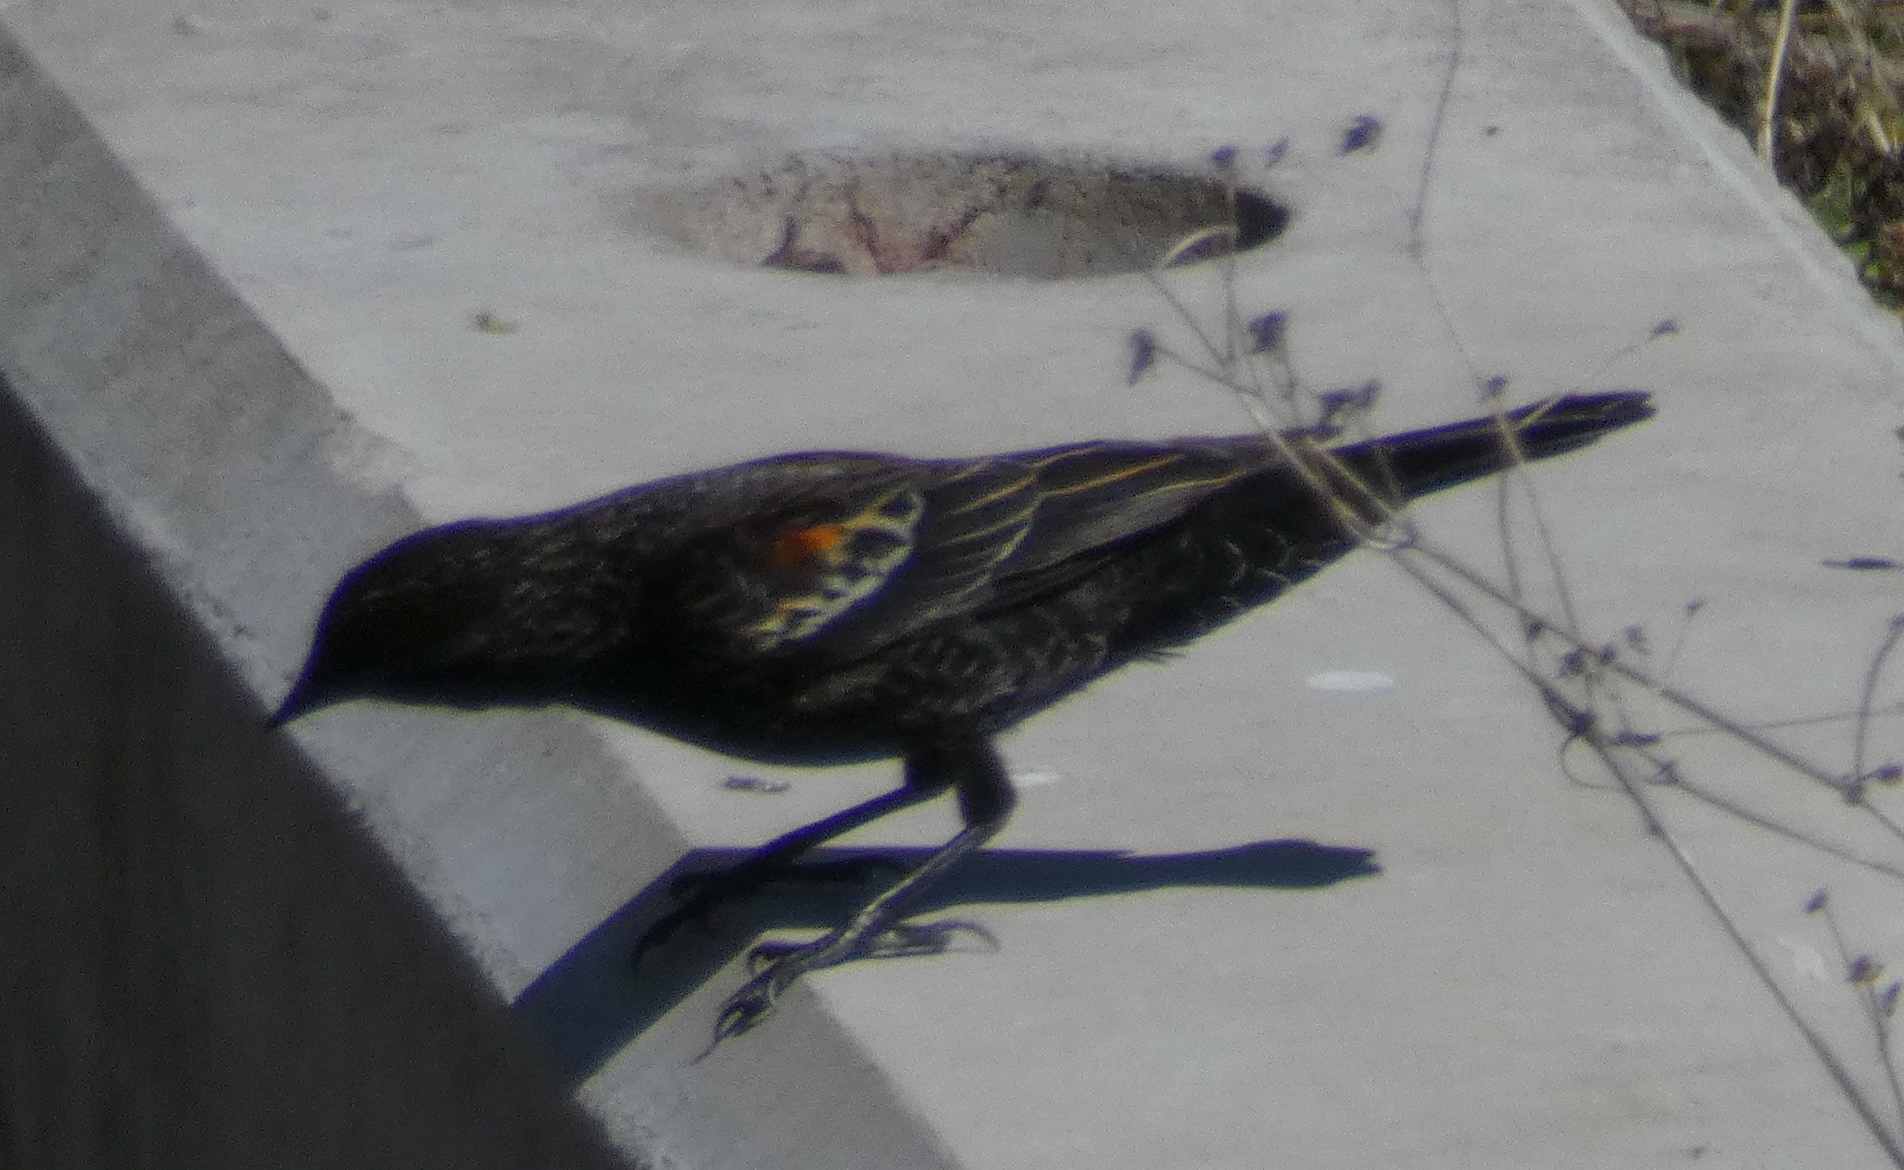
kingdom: Animalia
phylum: Chordata
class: Aves
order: Passeriformes
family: Icteridae
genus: Agelaius
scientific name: Agelaius phoeniceus
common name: Red-winged blackbird
